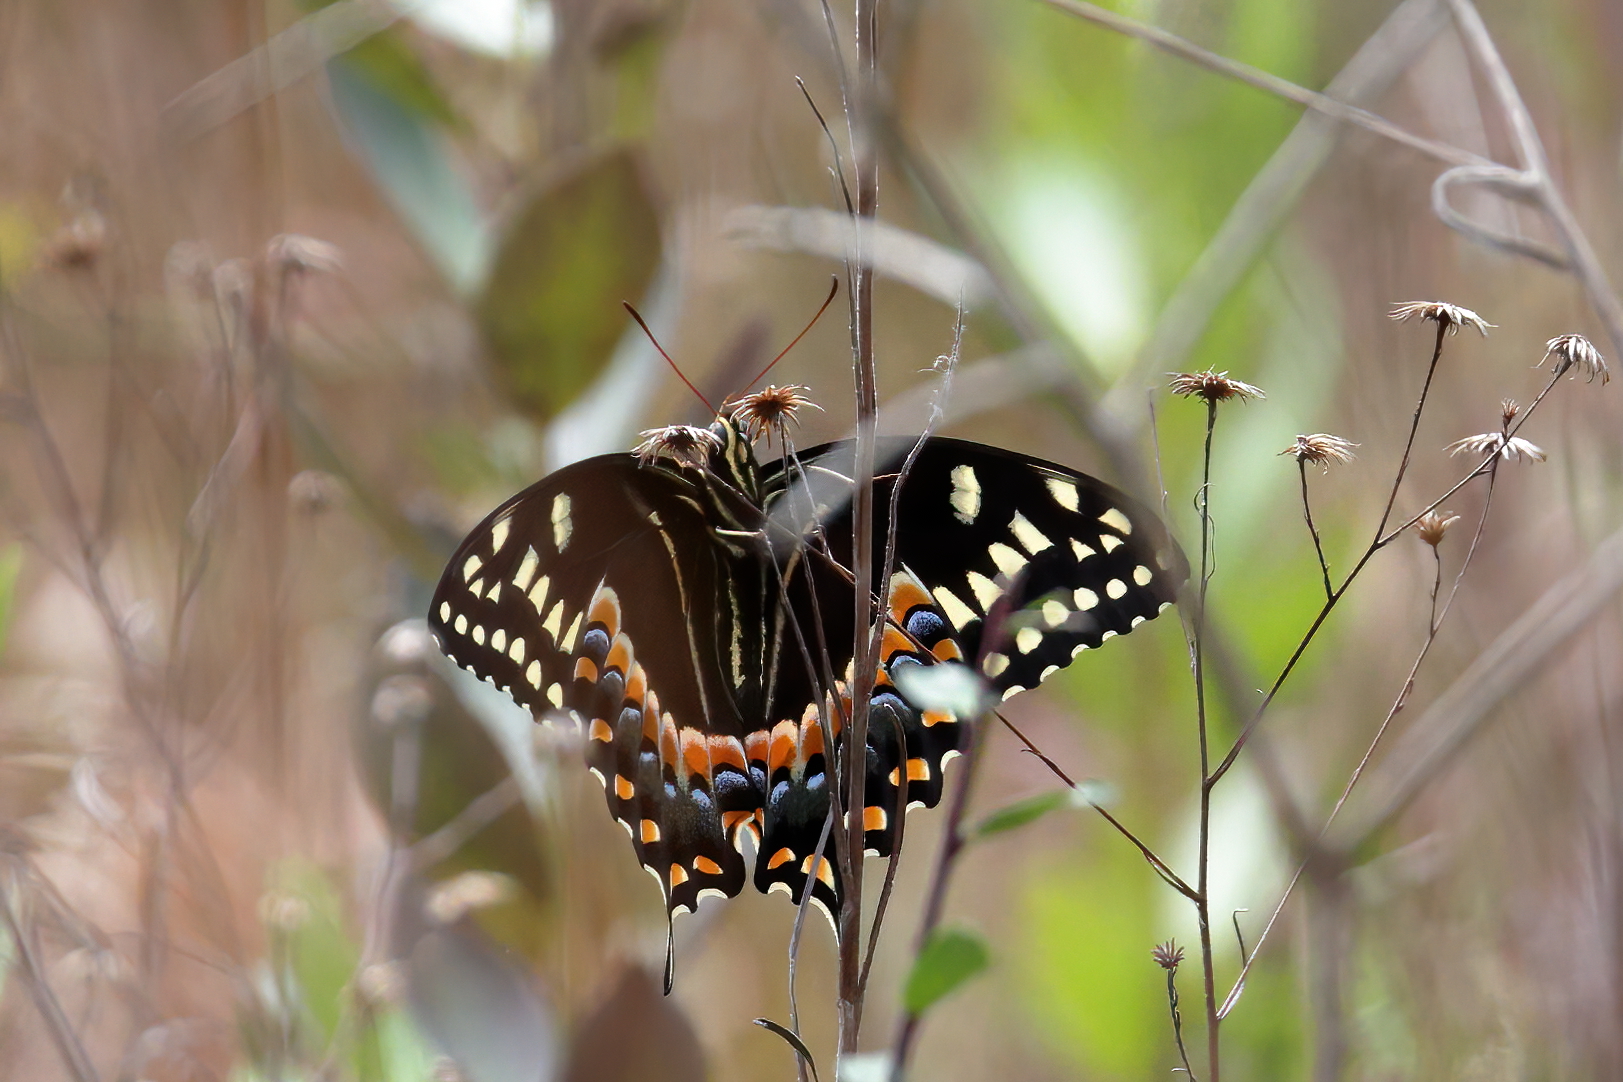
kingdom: Animalia
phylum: Arthropoda
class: Insecta
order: Lepidoptera
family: Papilionidae
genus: Papilio
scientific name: Papilio palamedes
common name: Palamedes swallowtail
